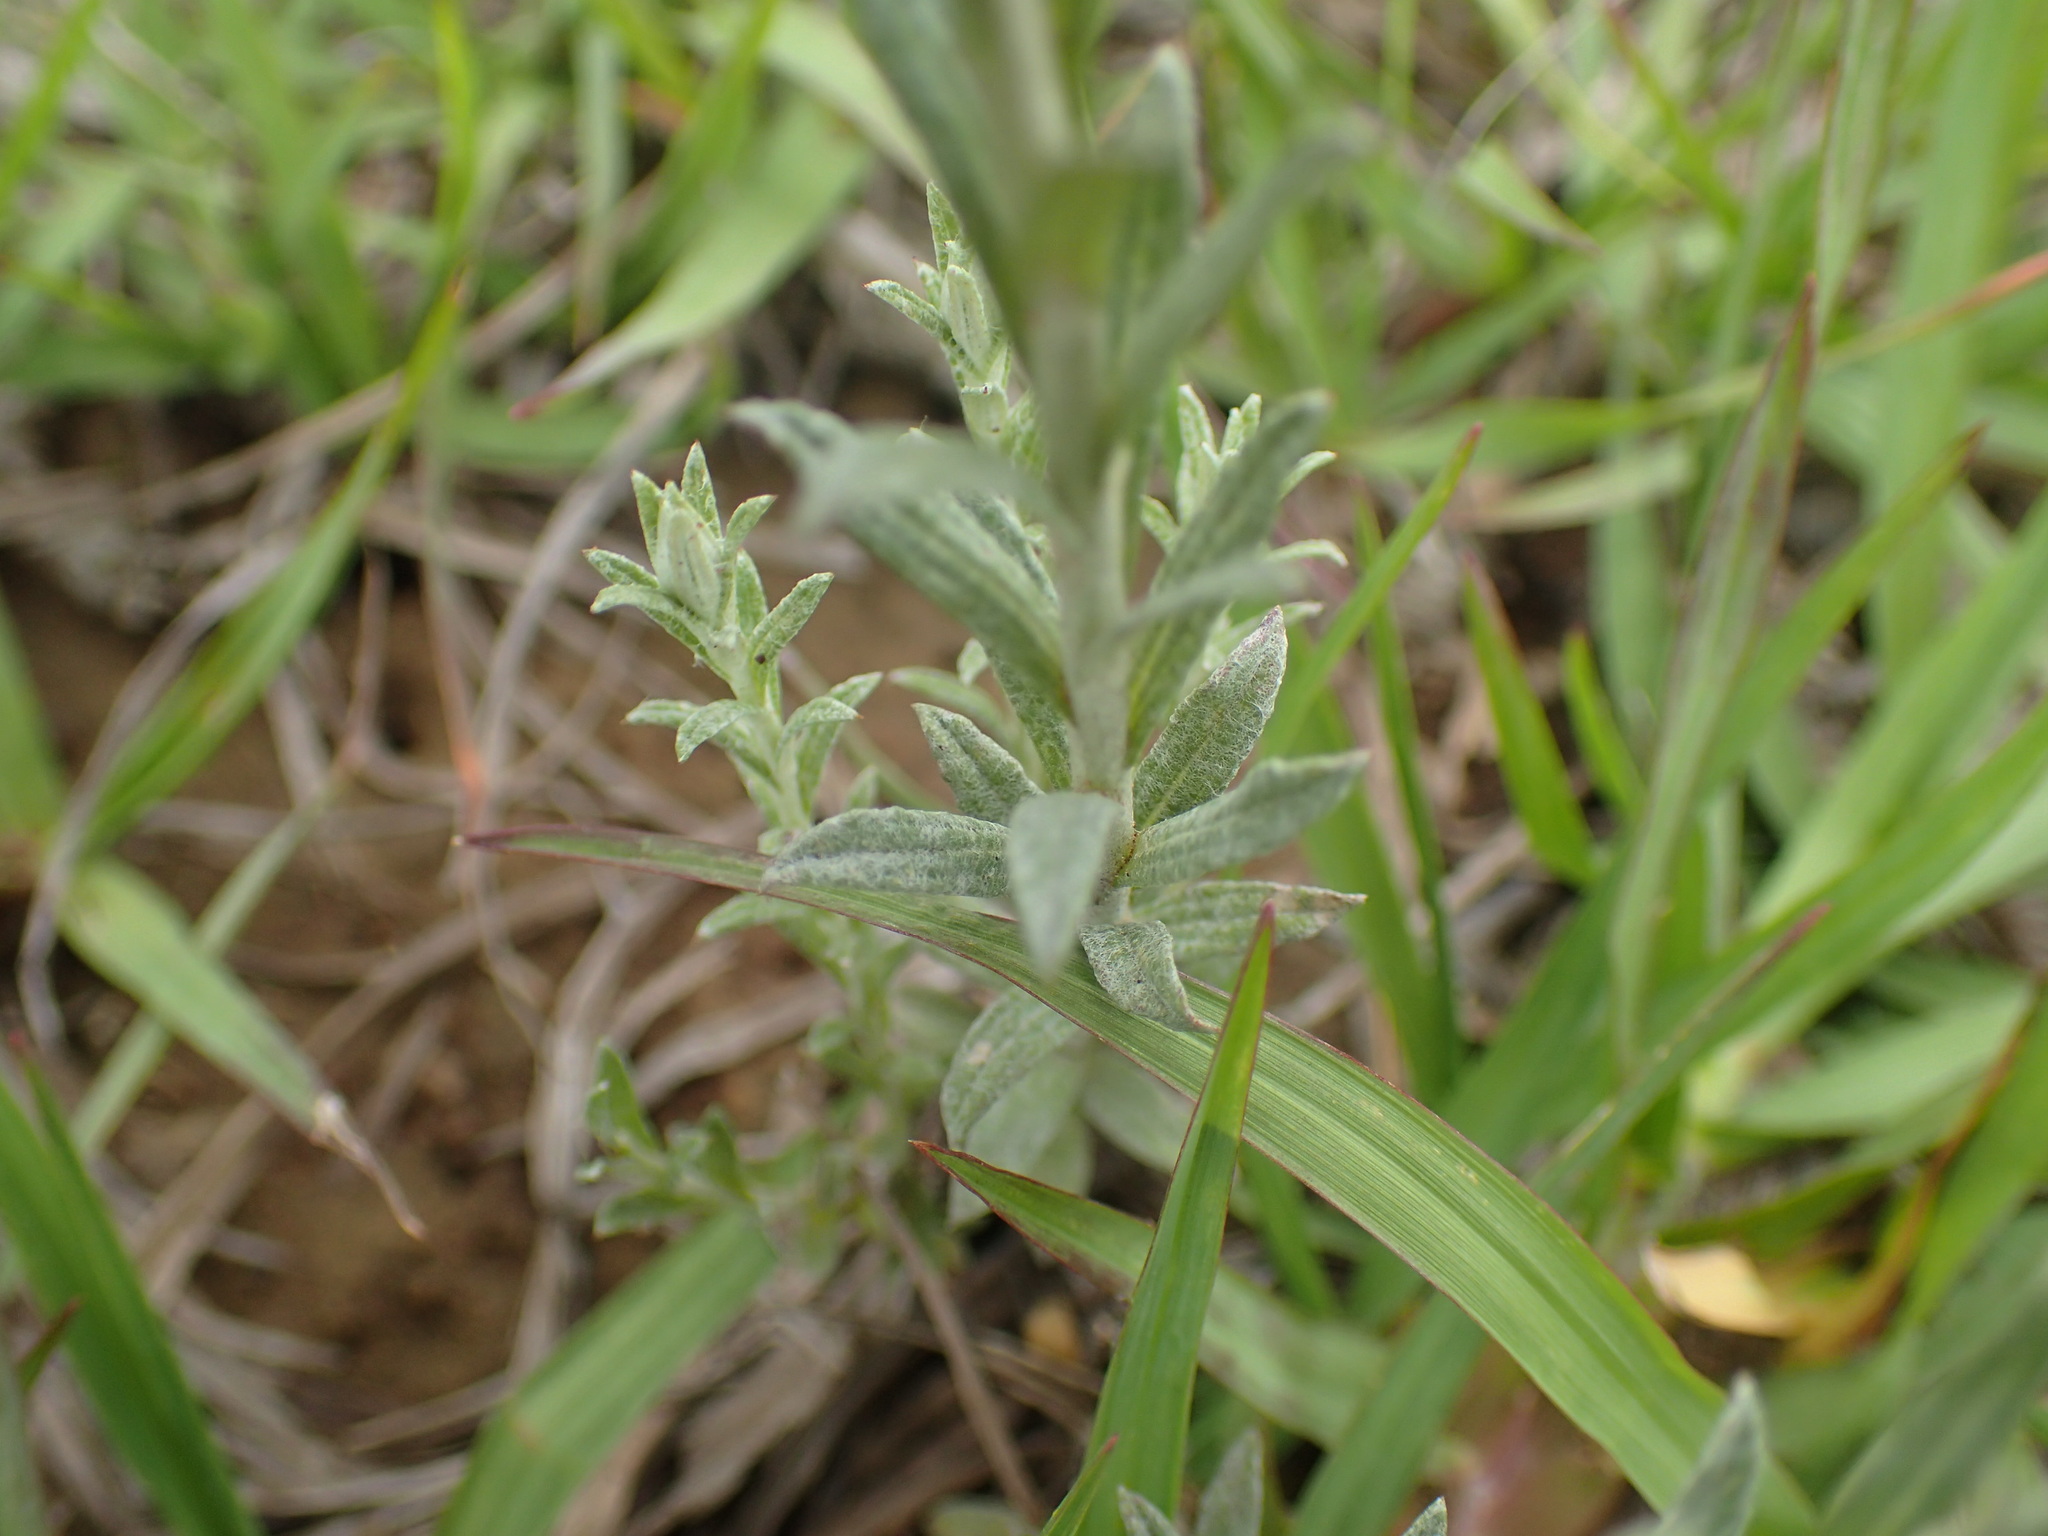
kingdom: Plantae
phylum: Tracheophyta
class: Magnoliopsida
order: Asterales
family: Asteraceae
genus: Helichrysum
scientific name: Helichrysum rugulosum
